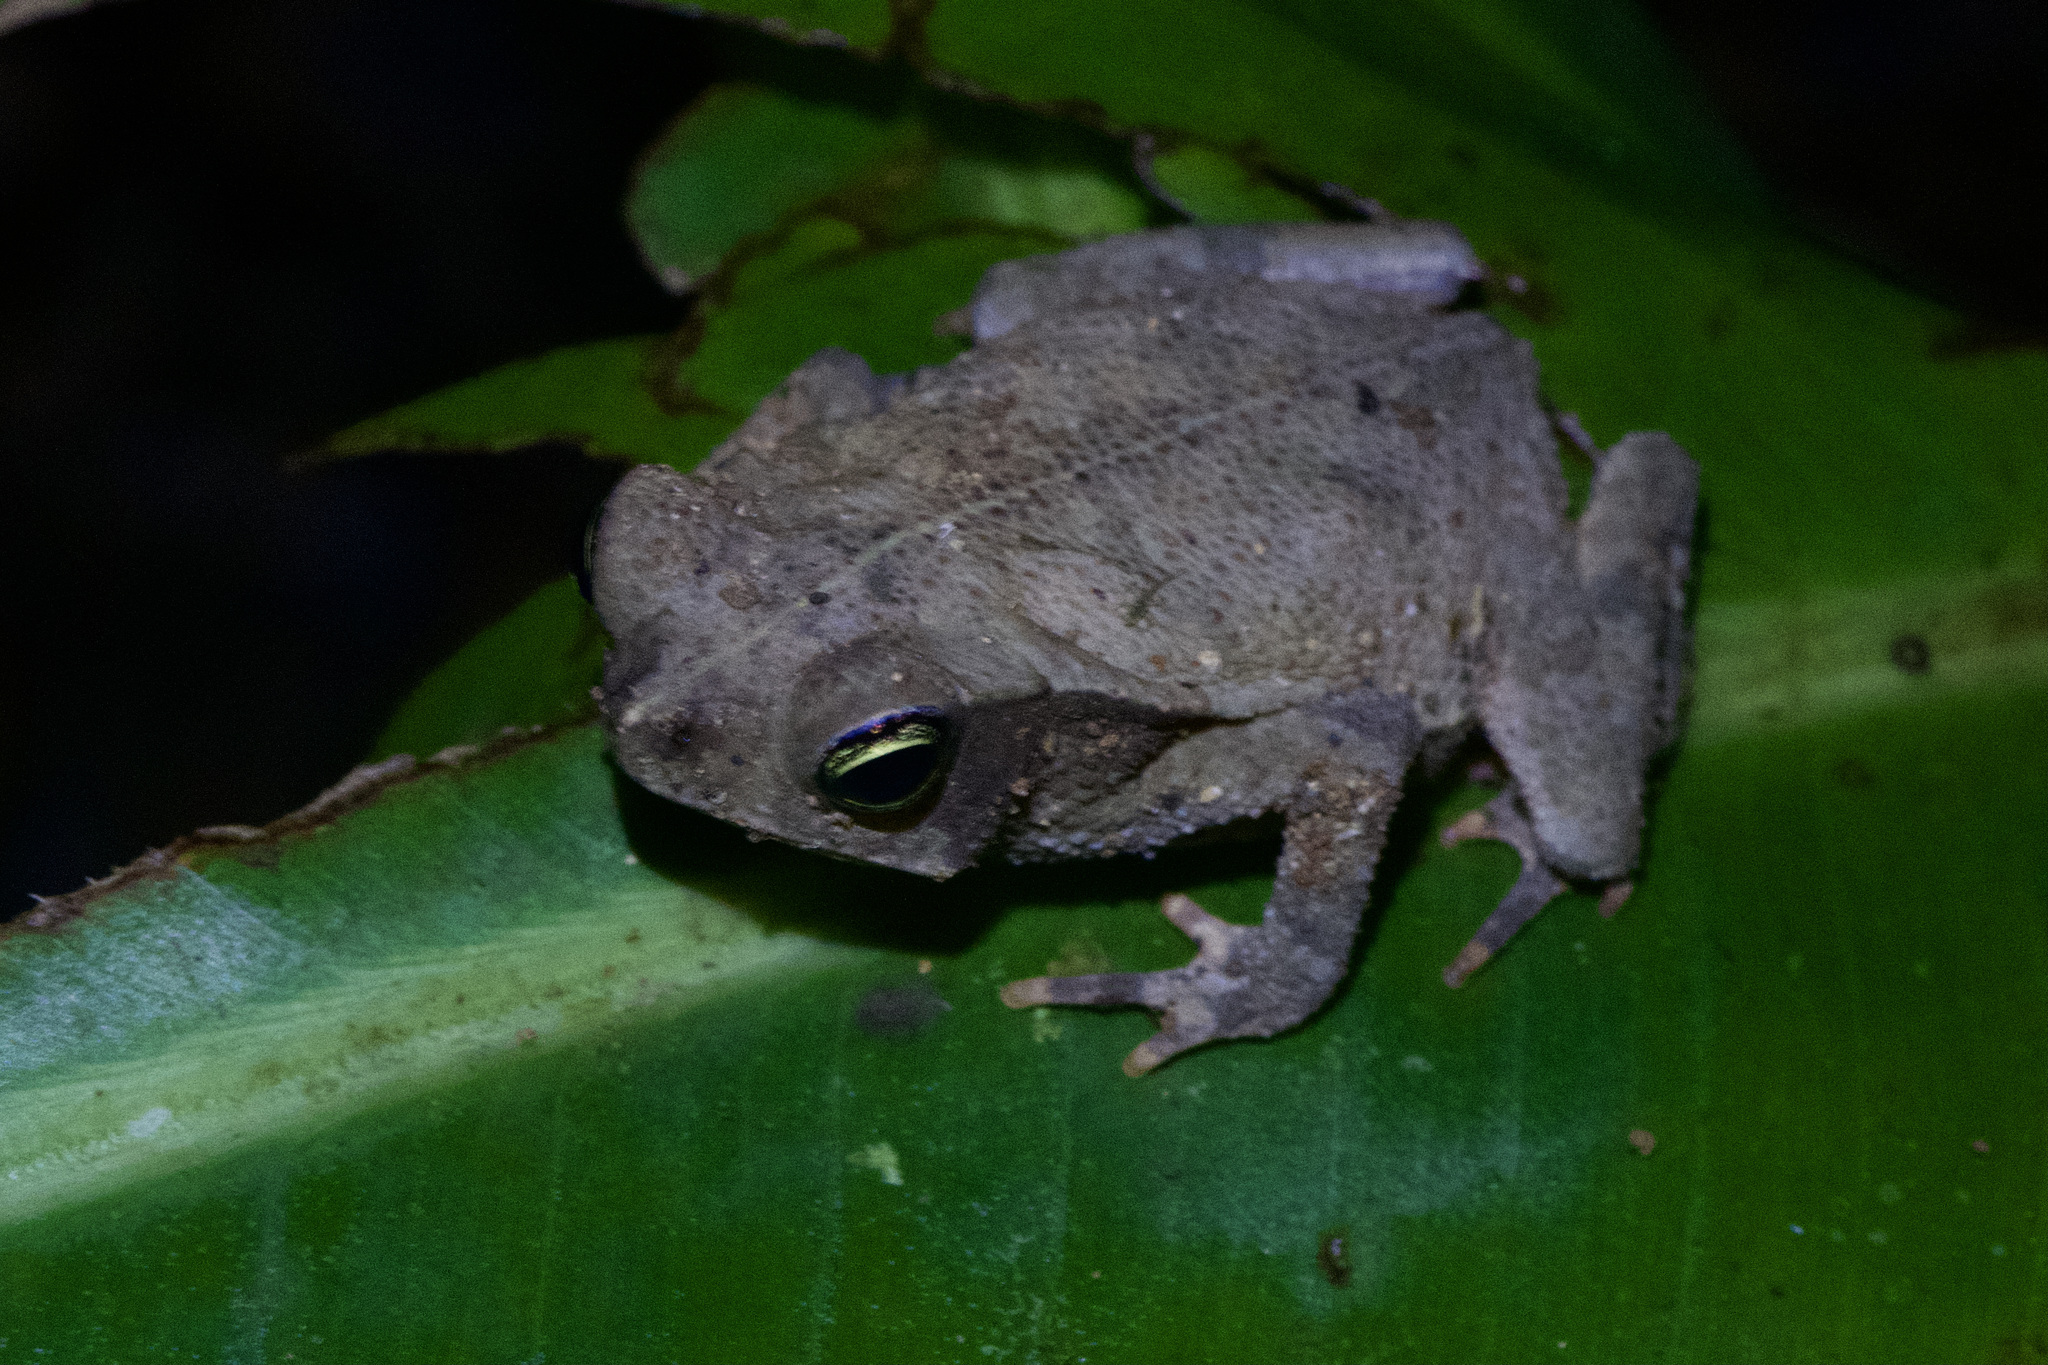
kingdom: Animalia
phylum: Chordata
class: Amphibia
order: Anura
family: Bufonidae
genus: Rhinella
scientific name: Rhinella alata
